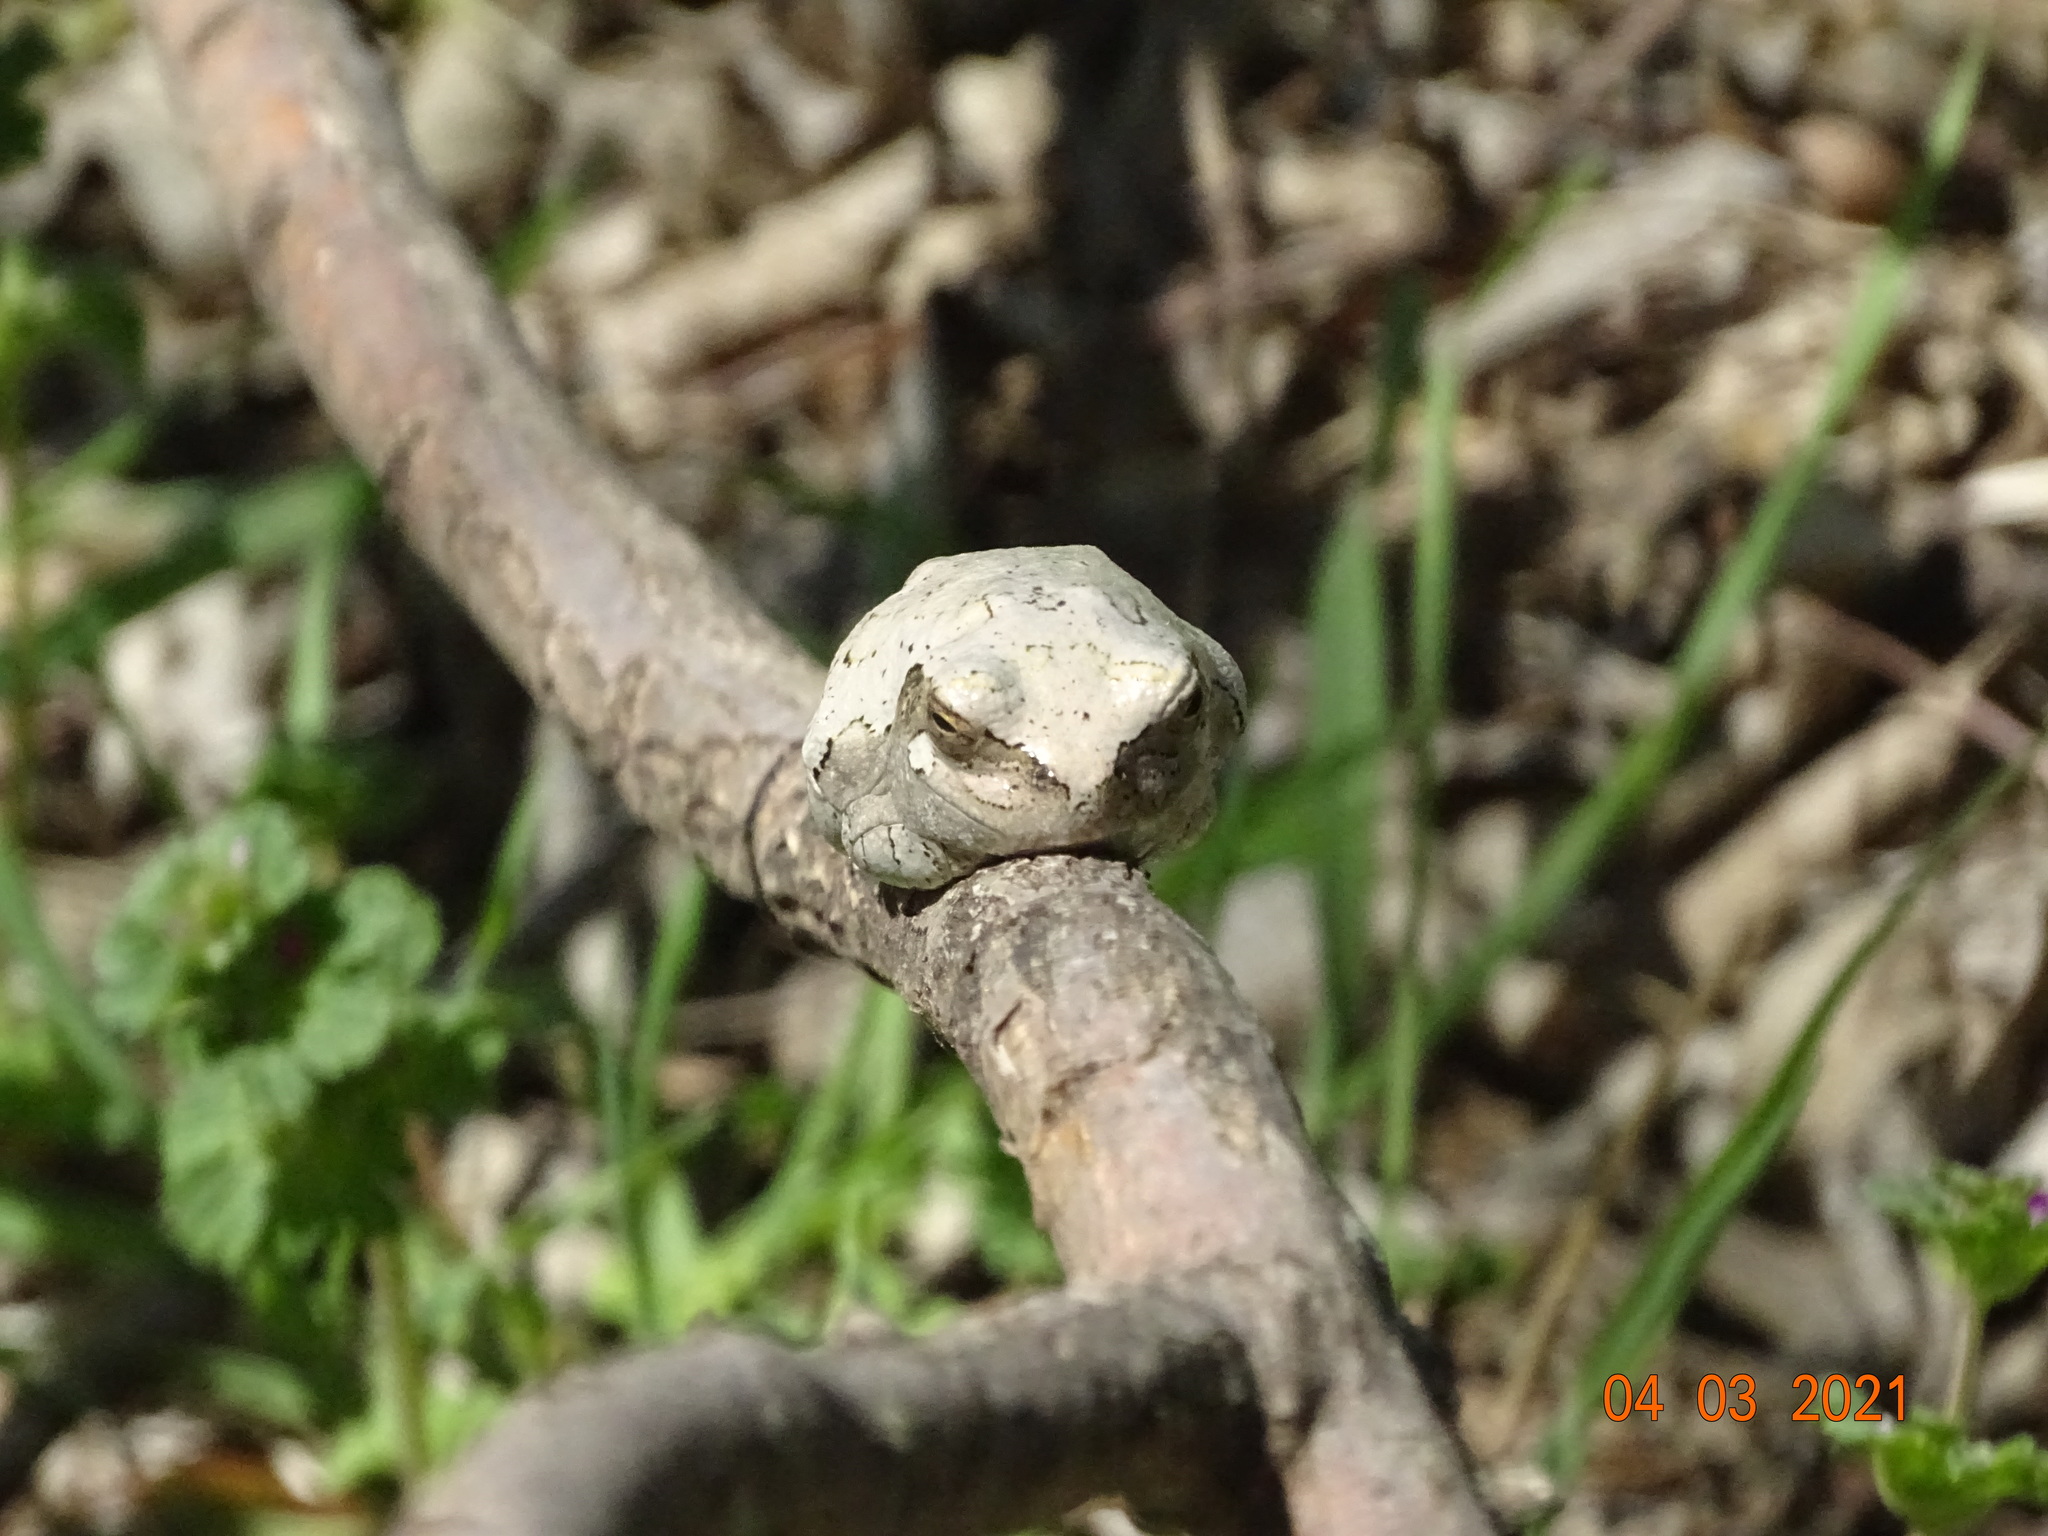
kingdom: Animalia
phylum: Chordata
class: Amphibia
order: Anura
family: Hylidae
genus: Hyla
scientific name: Hyla
